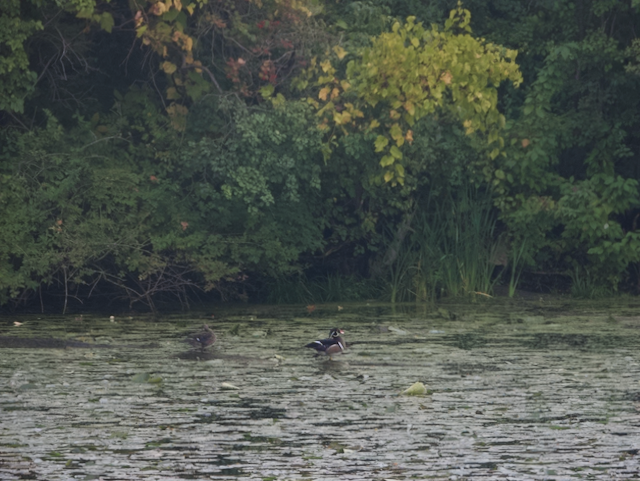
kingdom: Animalia
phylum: Chordata
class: Aves
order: Anseriformes
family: Anatidae
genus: Aix
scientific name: Aix sponsa
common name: Wood duck
